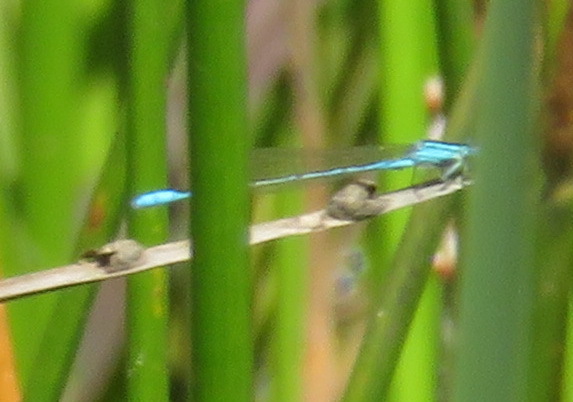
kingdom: Animalia
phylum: Arthropoda
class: Insecta
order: Odonata
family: Coenagrionidae
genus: Africallagma
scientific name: Africallagma glaucum
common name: Swamp bluet
